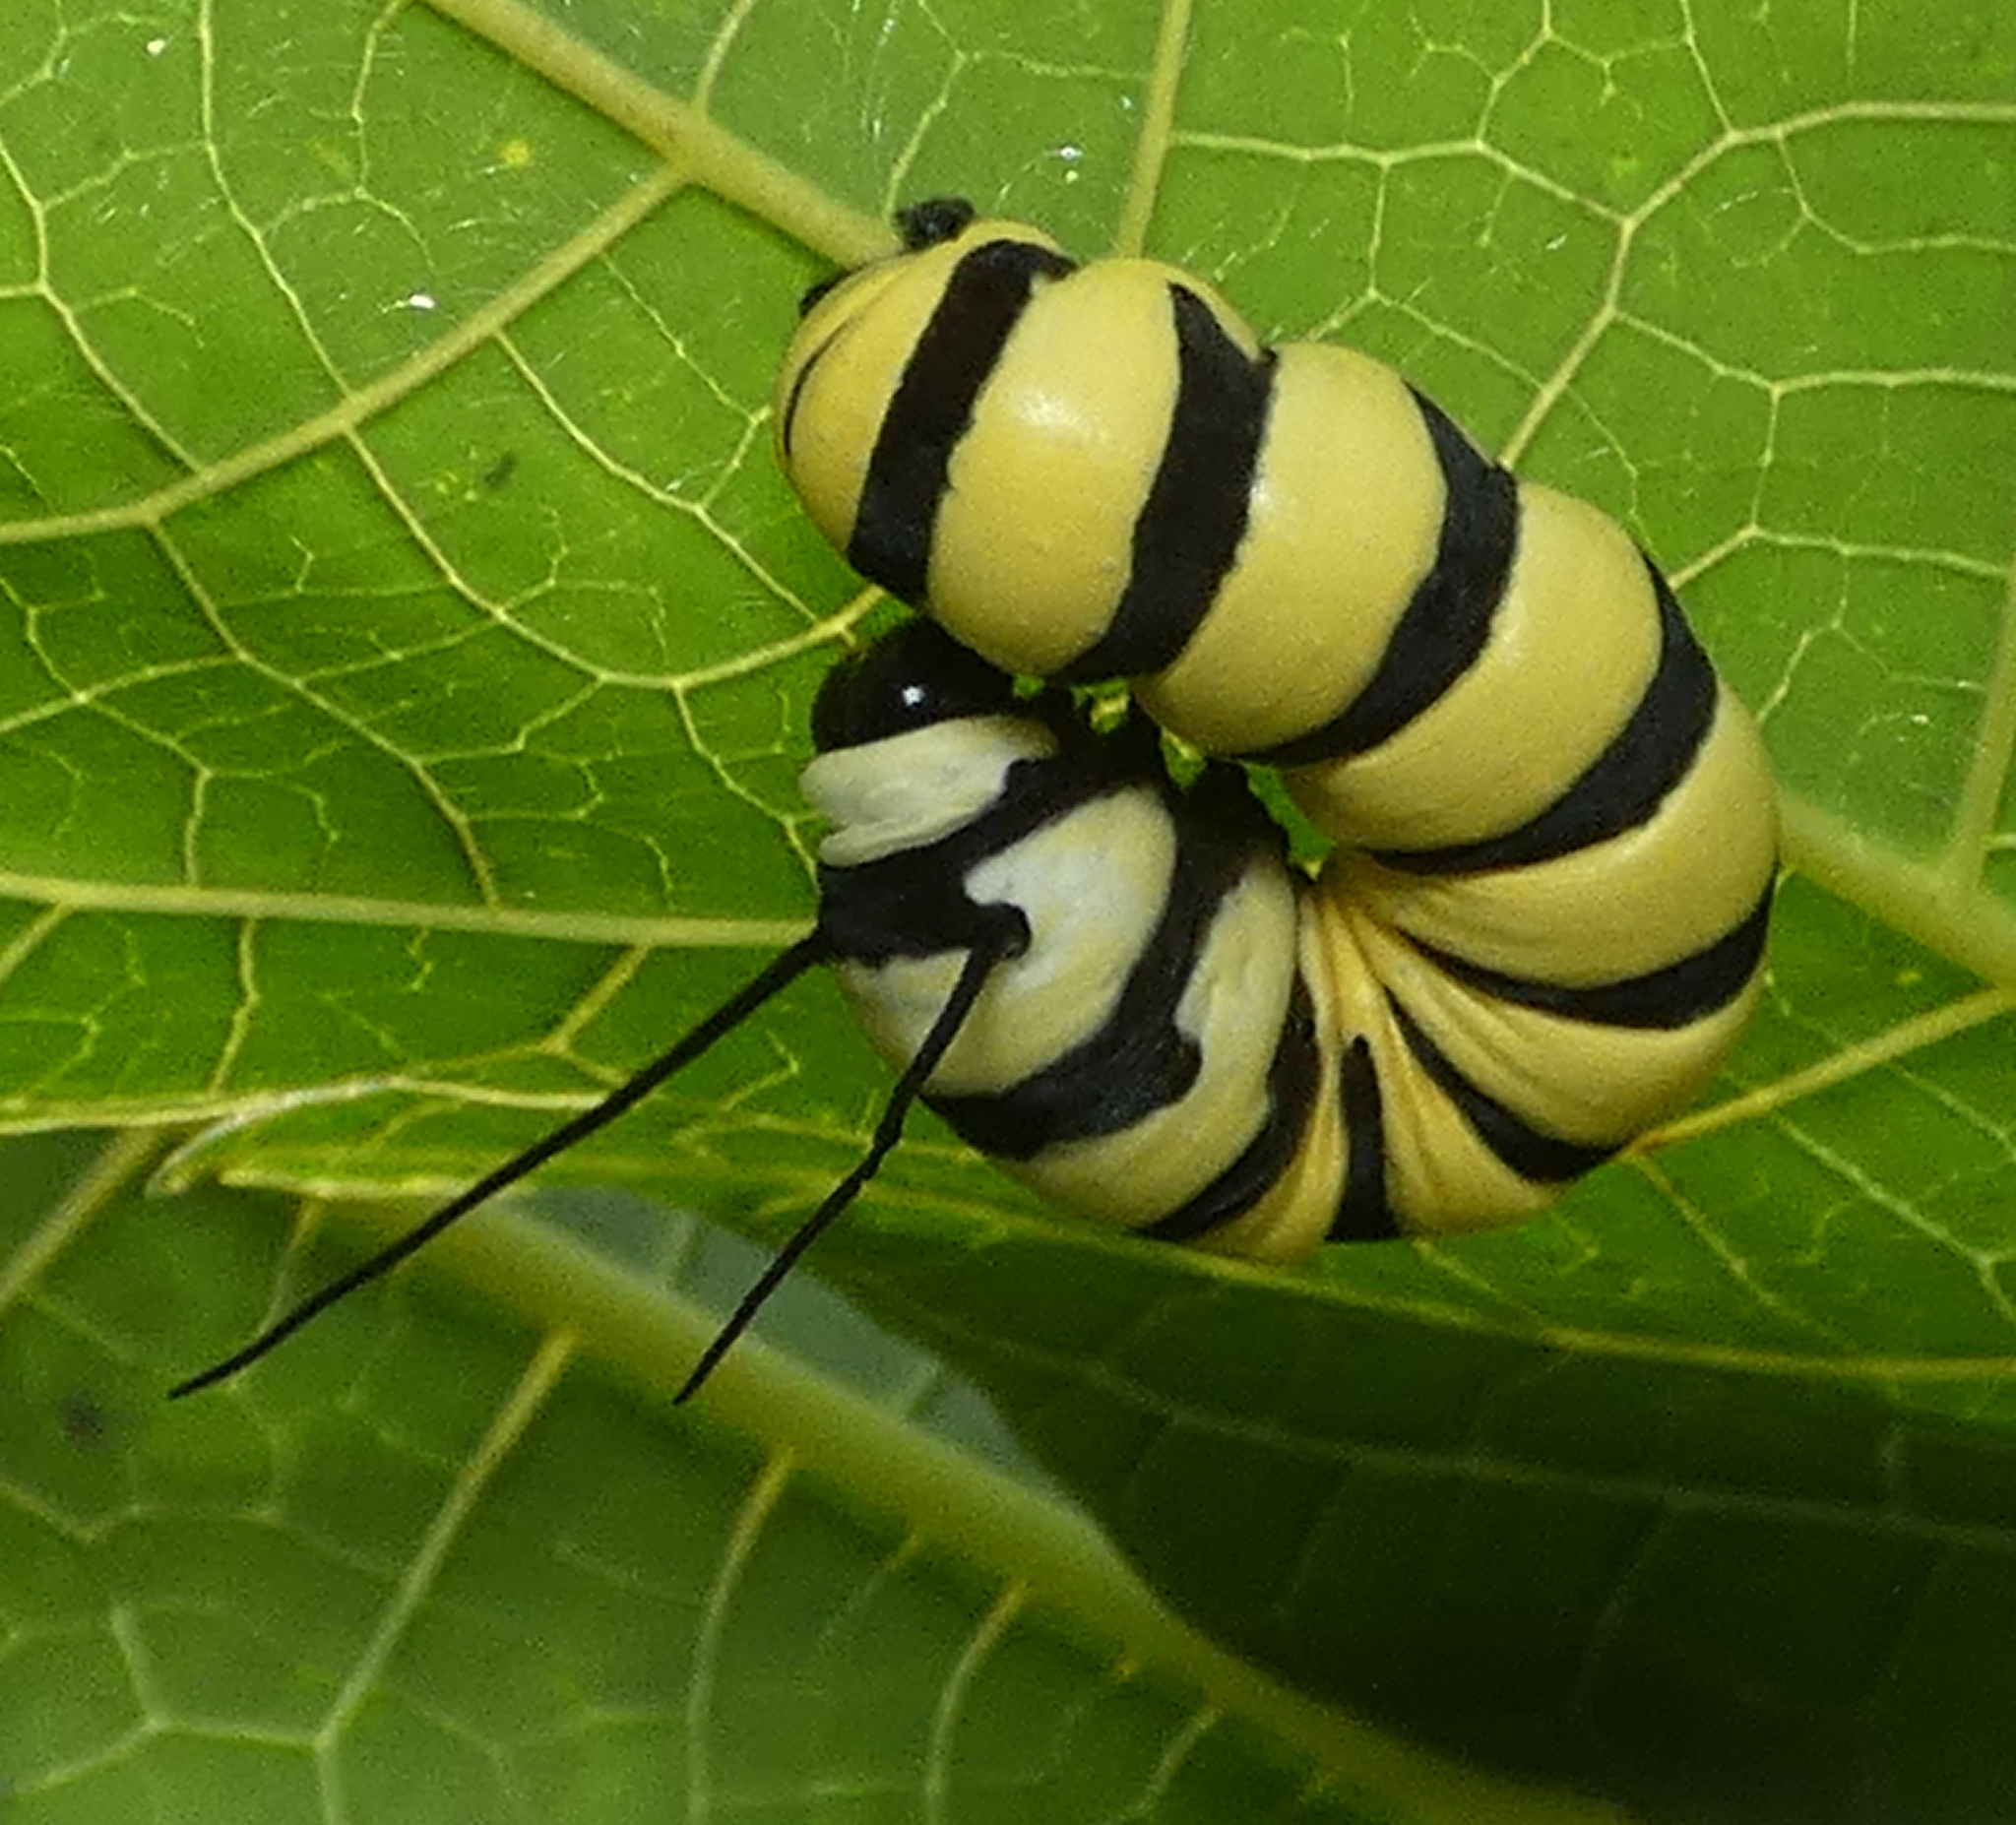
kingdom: Animalia
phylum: Arthropoda
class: Insecta
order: Lepidoptera
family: Nymphalidae
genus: Lycorea
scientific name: Lycorea cleobaea
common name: Tiger mimic-queen
